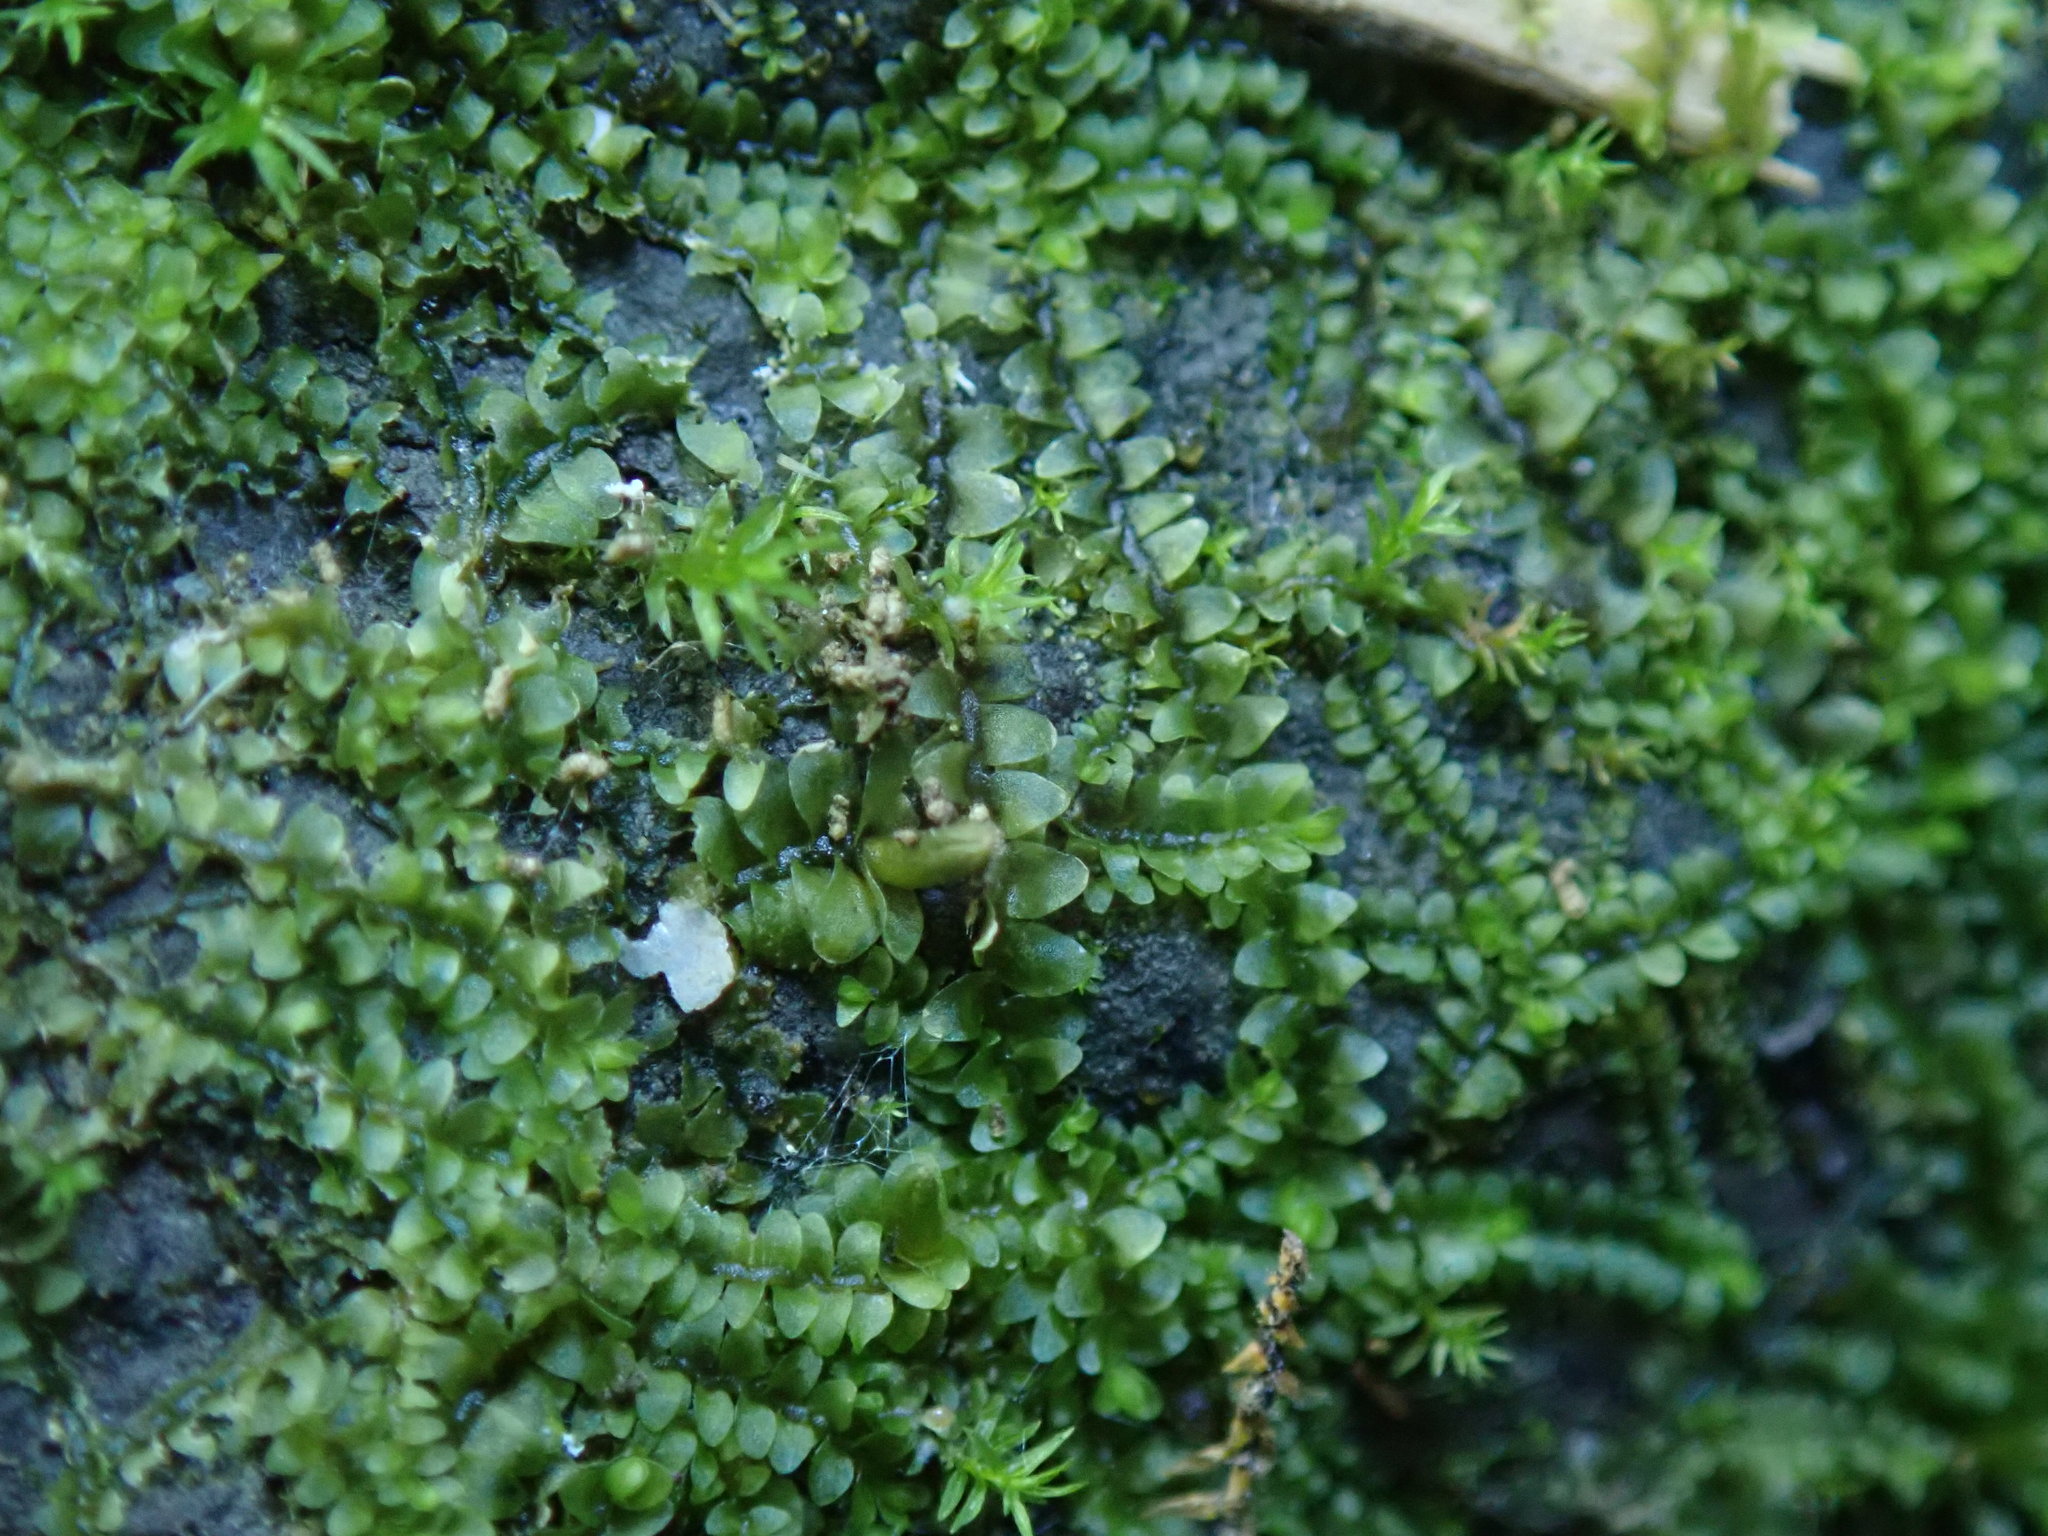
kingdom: Plantae
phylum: Marchantiophyta
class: Jungermanniopsida
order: Jungermanniales
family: Lophocoleaceae
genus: Lophocolea
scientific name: Lophocolea heterophylla
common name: Variable-leaved crestwort
